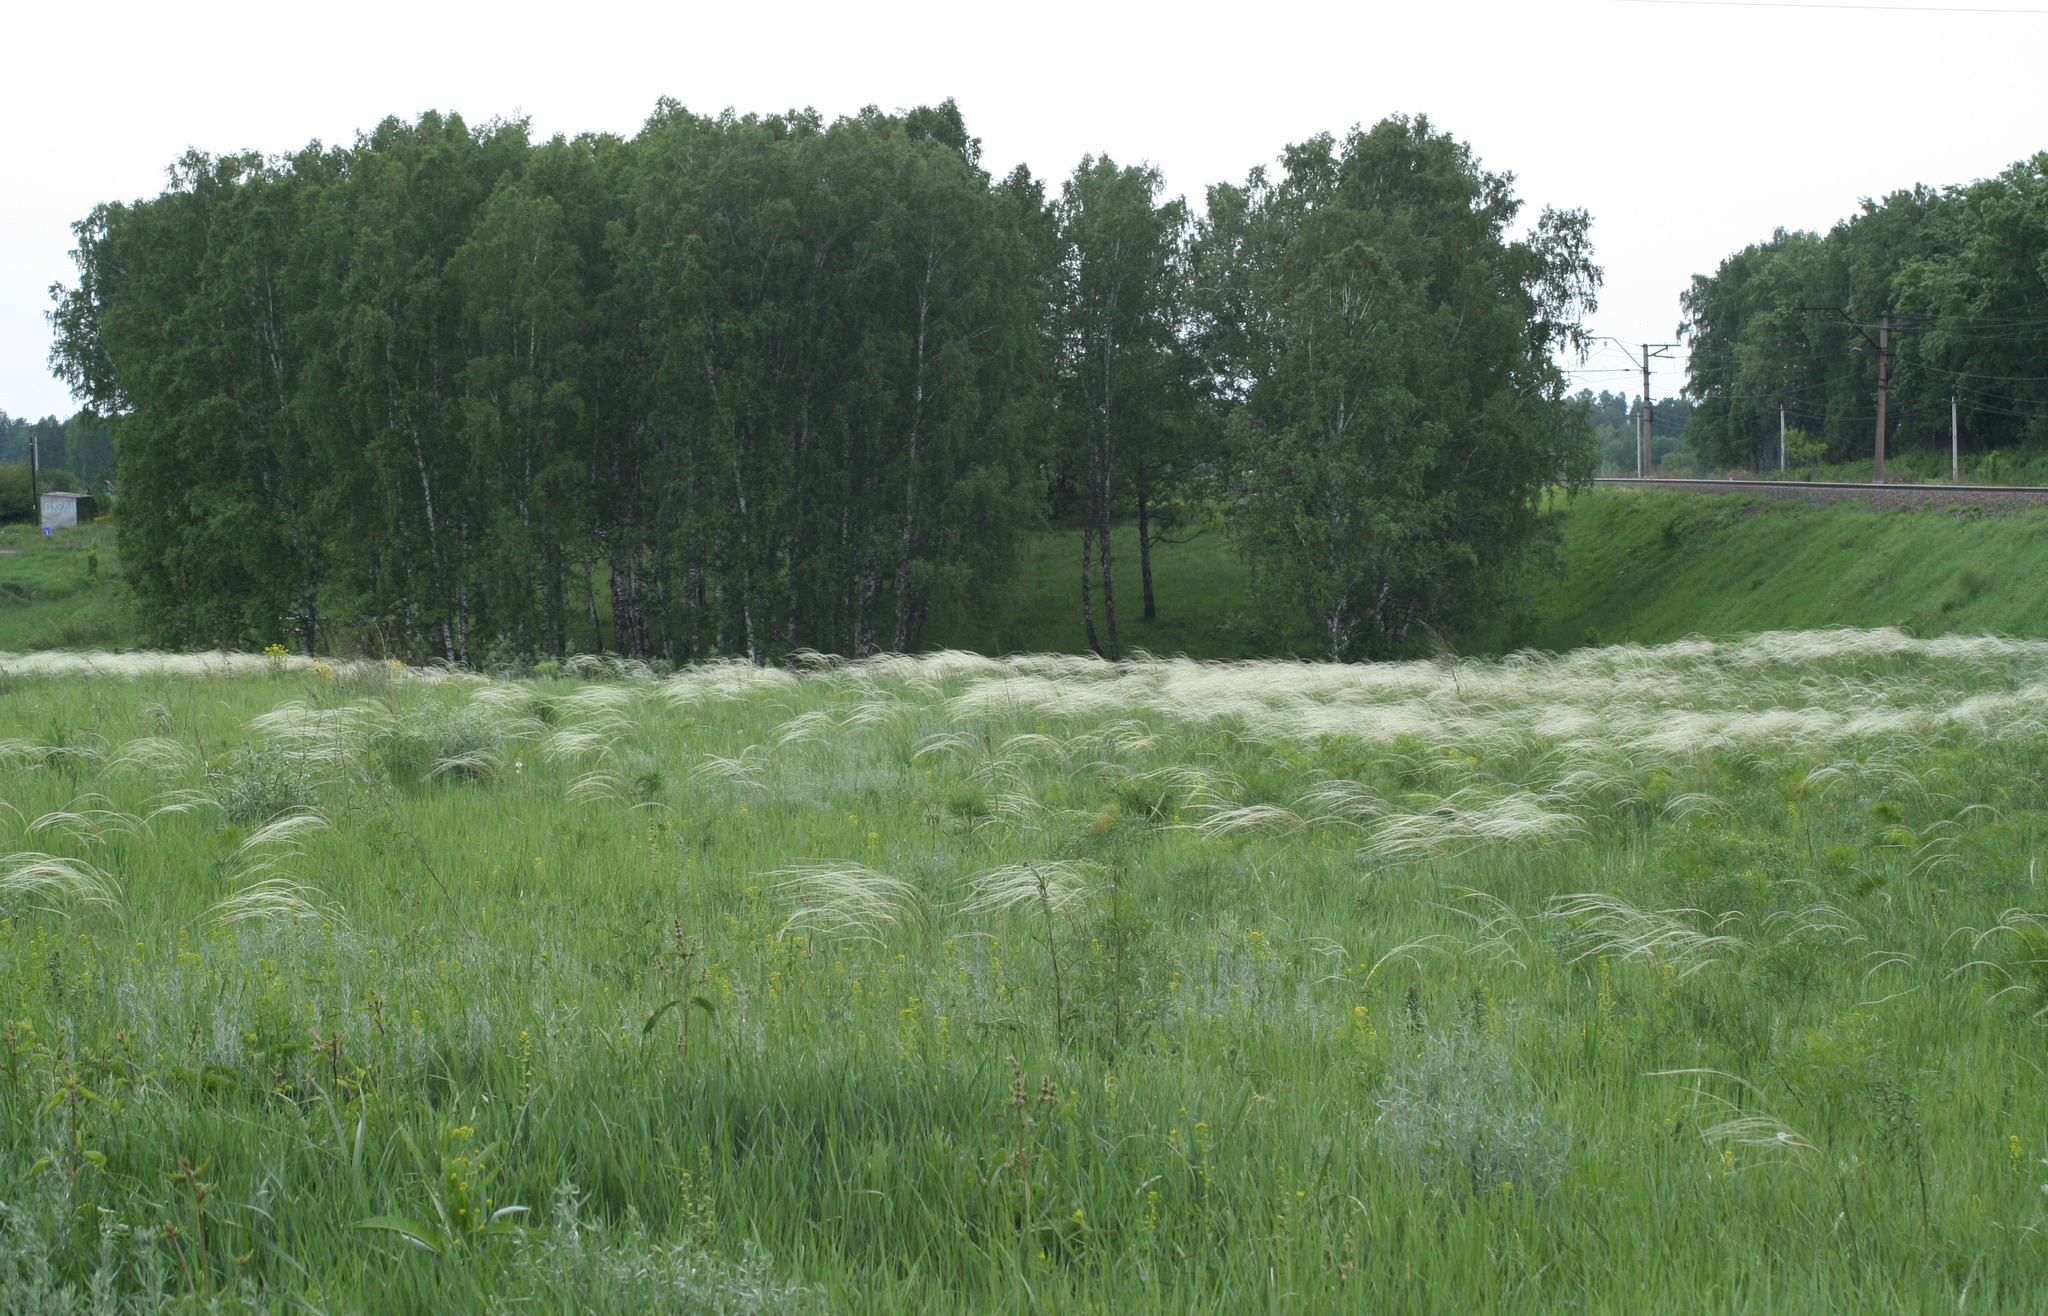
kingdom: Plantae
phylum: Tracheophyta
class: Liliopsida
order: Poales
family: Poaceae
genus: Stipa
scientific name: Stipa pennata
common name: European feather grass
